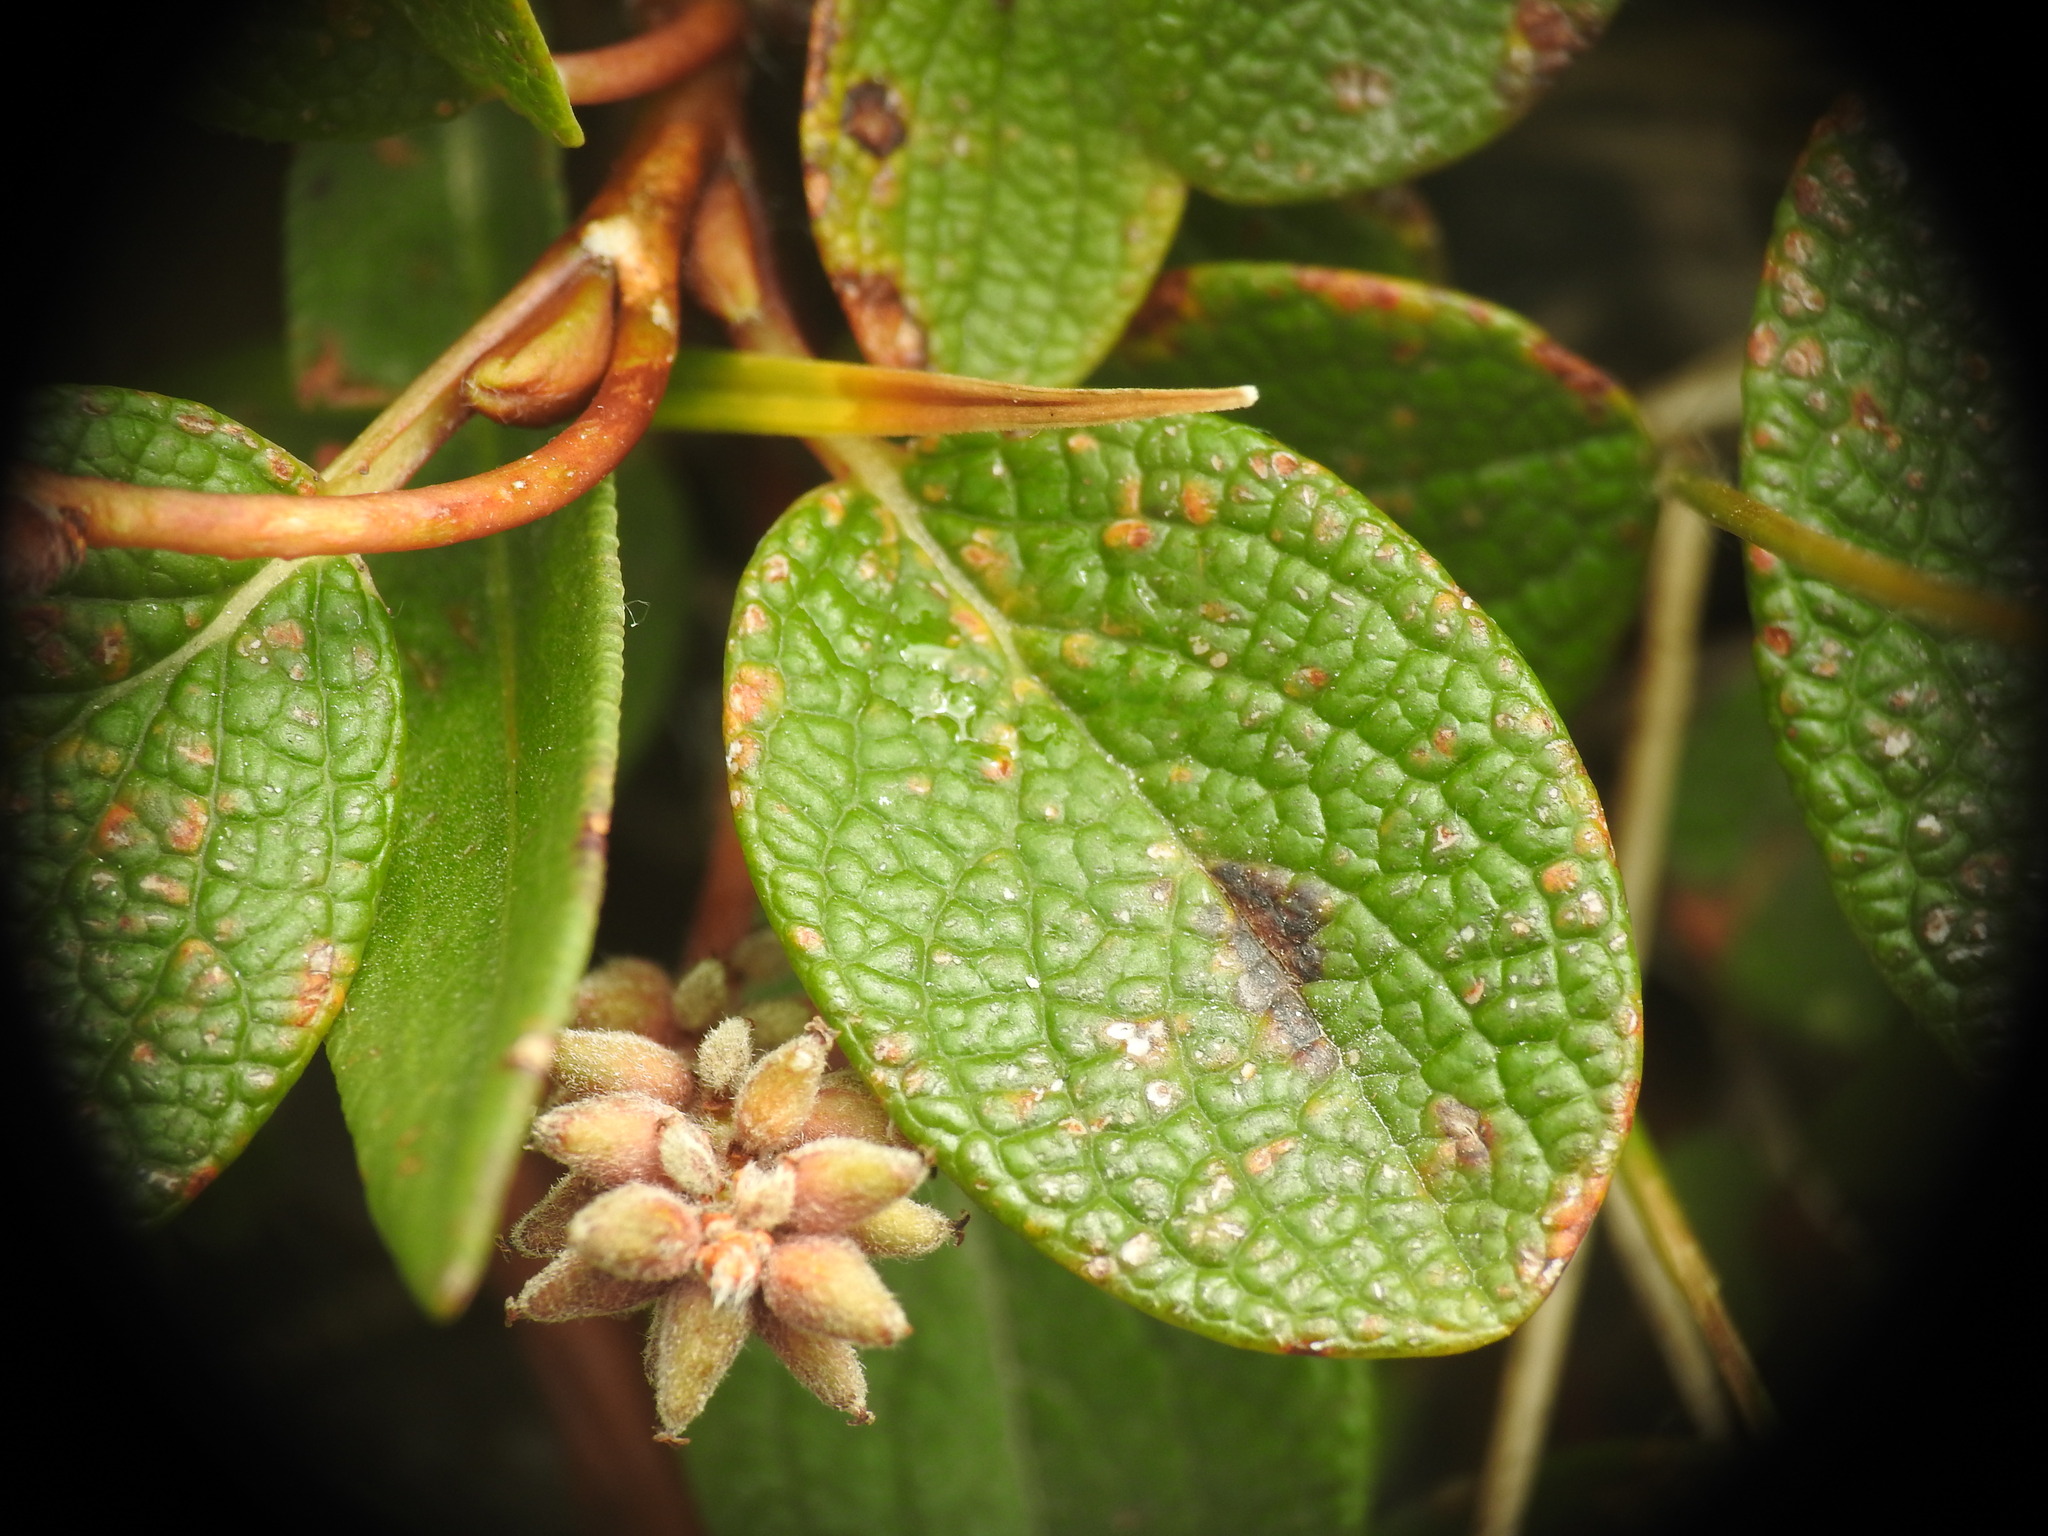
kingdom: Plantae
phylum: Tracheophyta
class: Magnoliopsida
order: Malpighiales
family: Salicaceae
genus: Salix
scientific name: Salix reticulata
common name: Net-leaved willow
